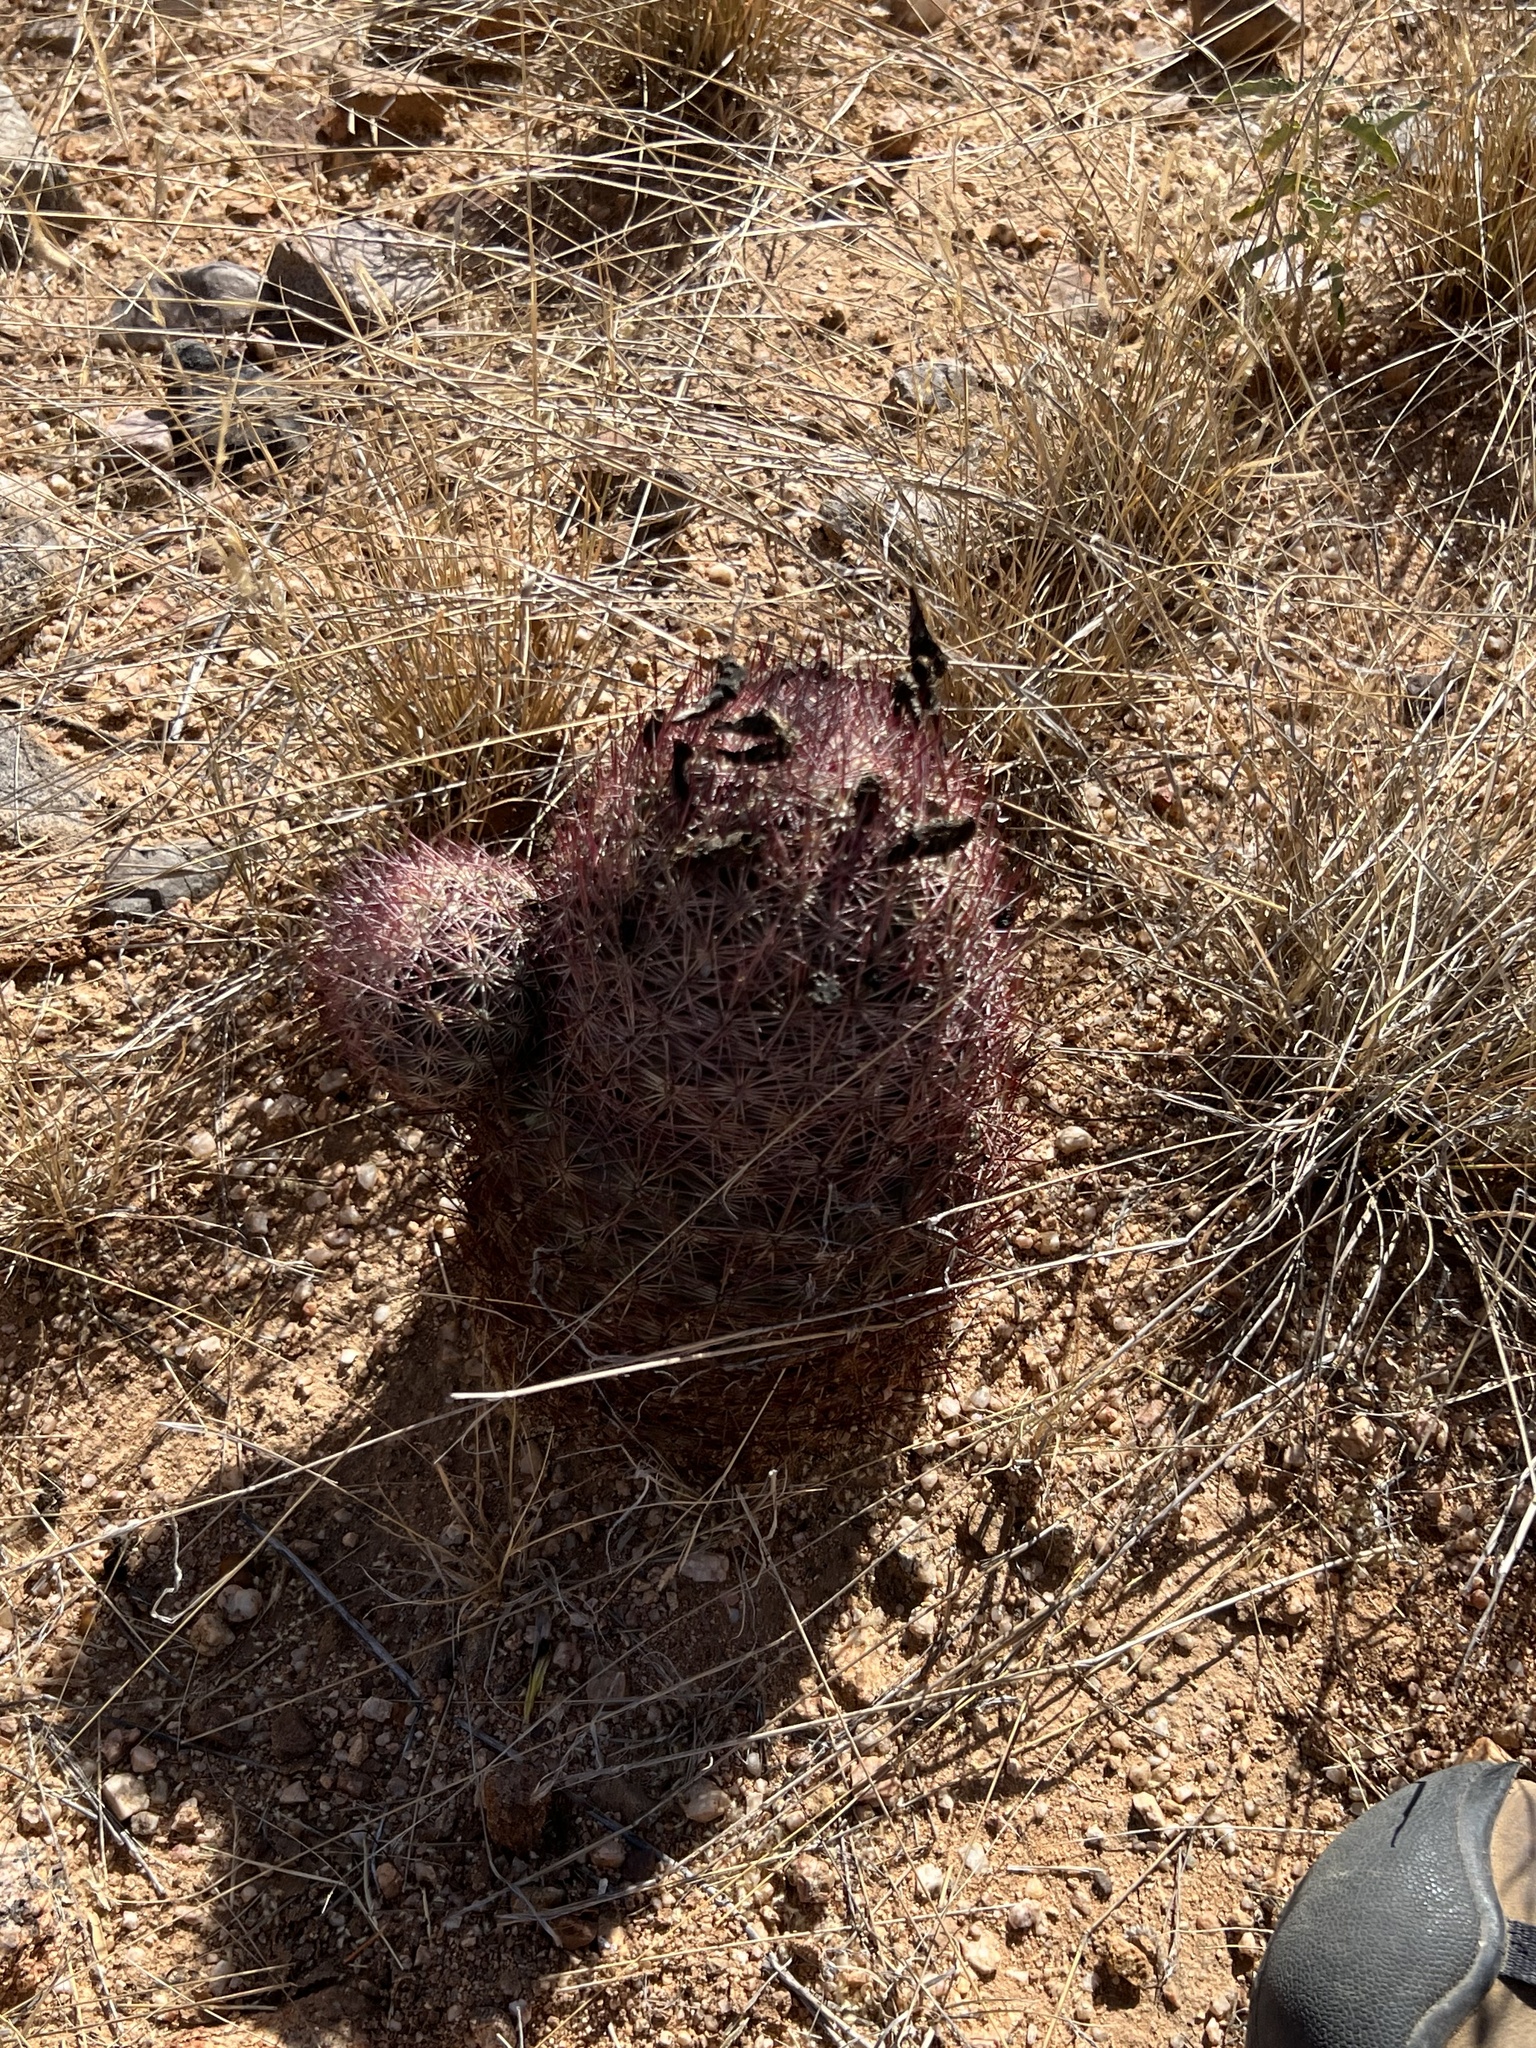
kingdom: Plantae
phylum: Tracheophyta
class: Magnoliopsida
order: Caryophyllales
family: Cactaceae
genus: Sclerocactus
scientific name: Sclerocactus johnsonii
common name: Eight-spine fishhook cactus
